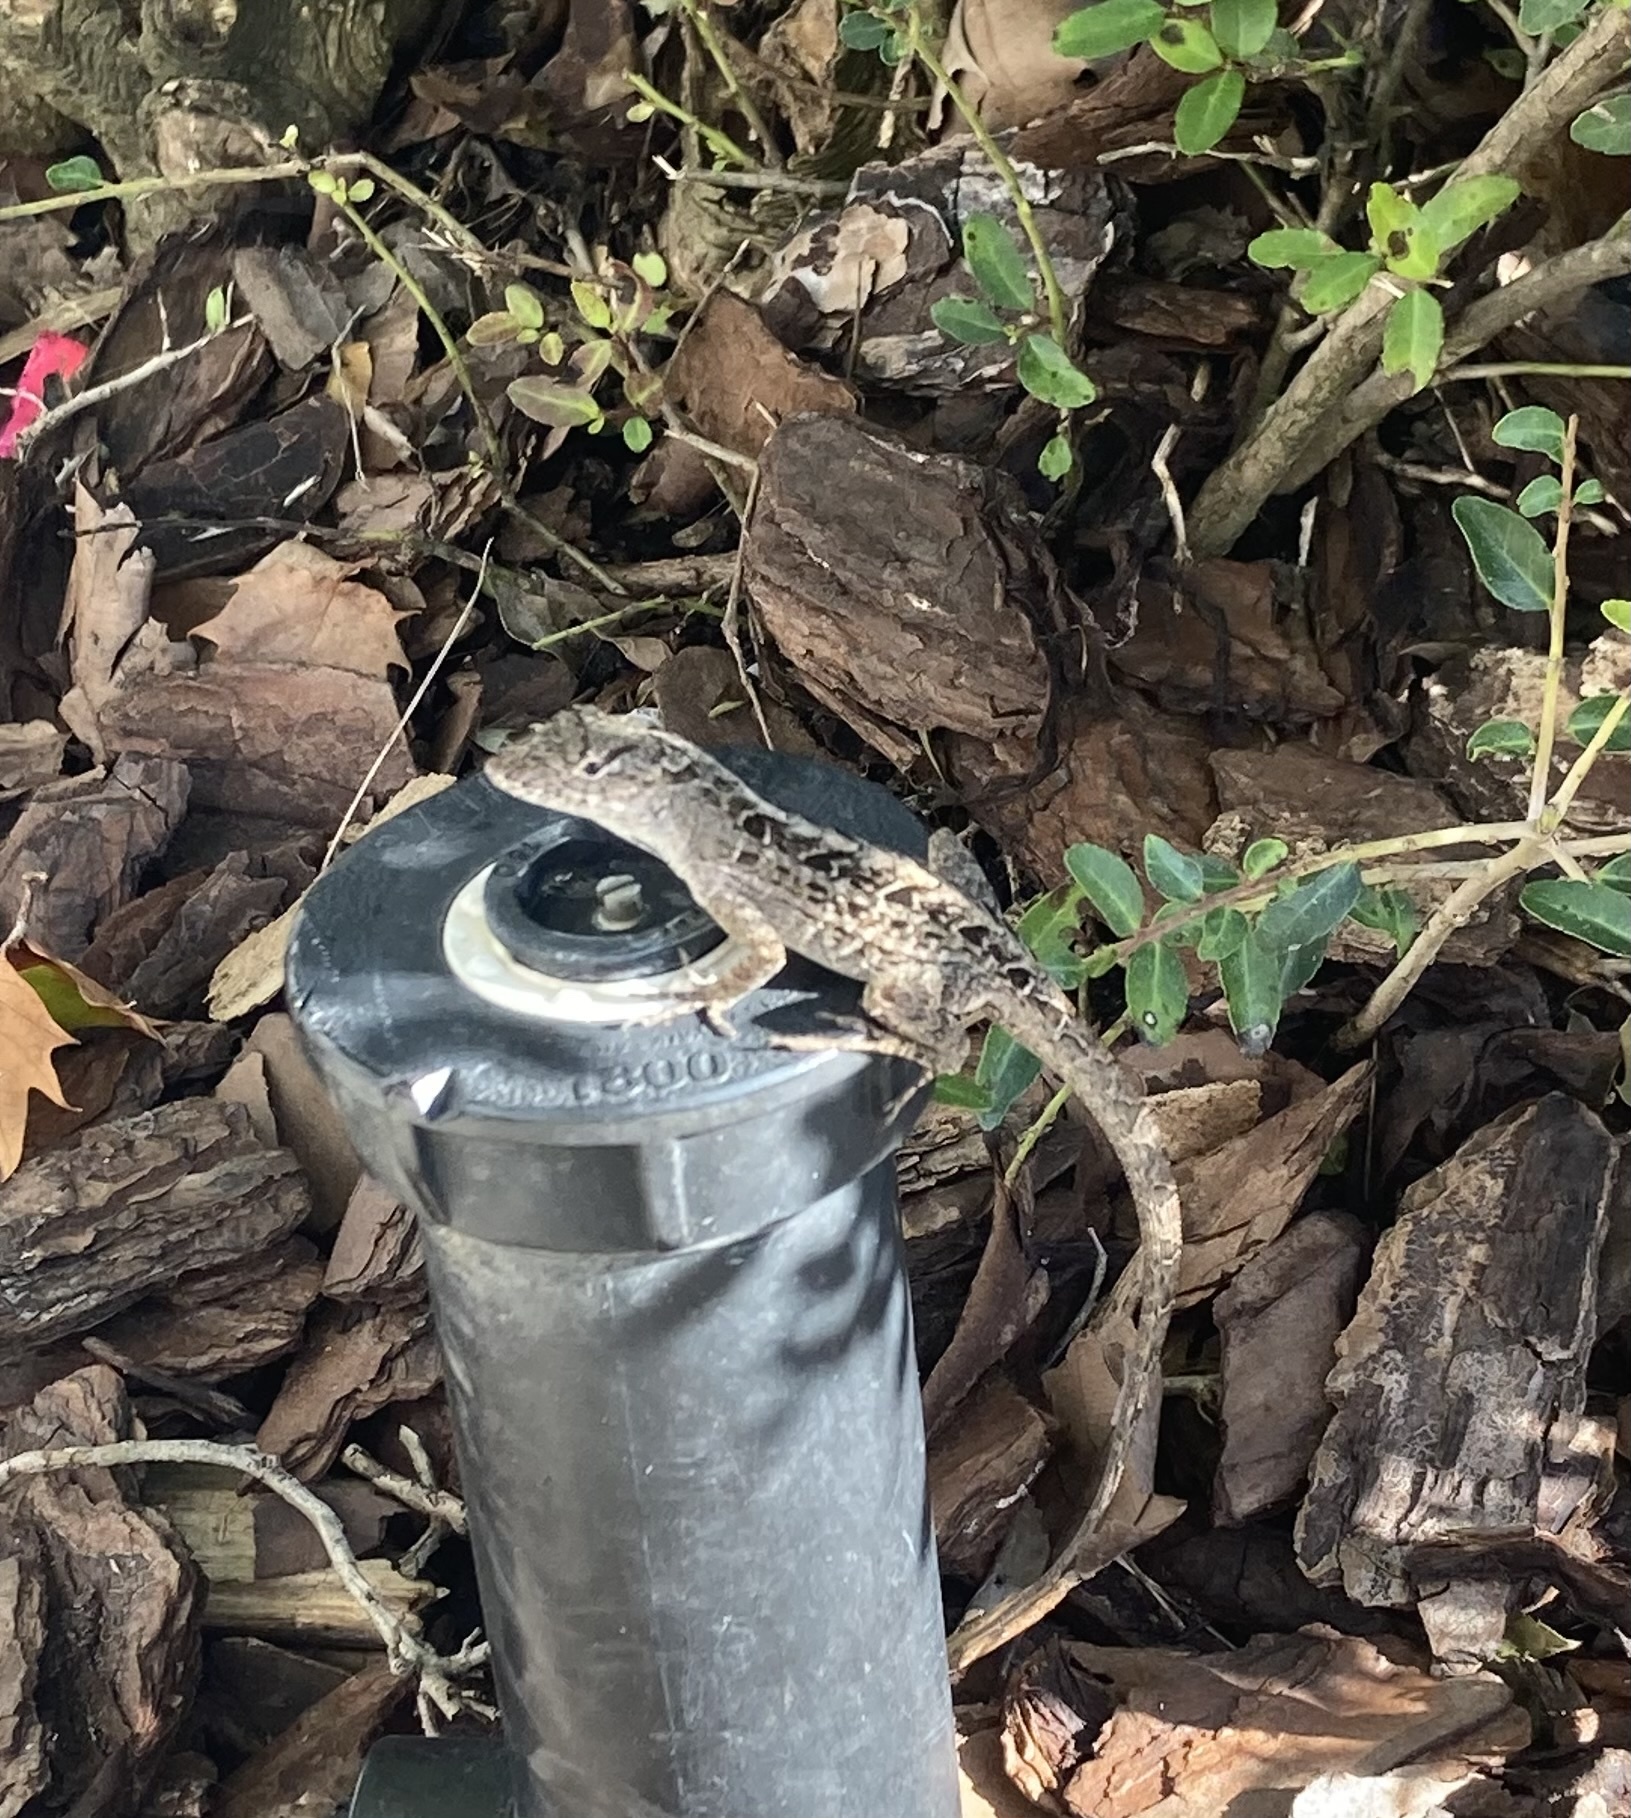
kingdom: Animalia
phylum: Chordata
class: Squamata
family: Dactyloidae
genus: Anolis
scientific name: Anolis sagrei
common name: Brown anole
